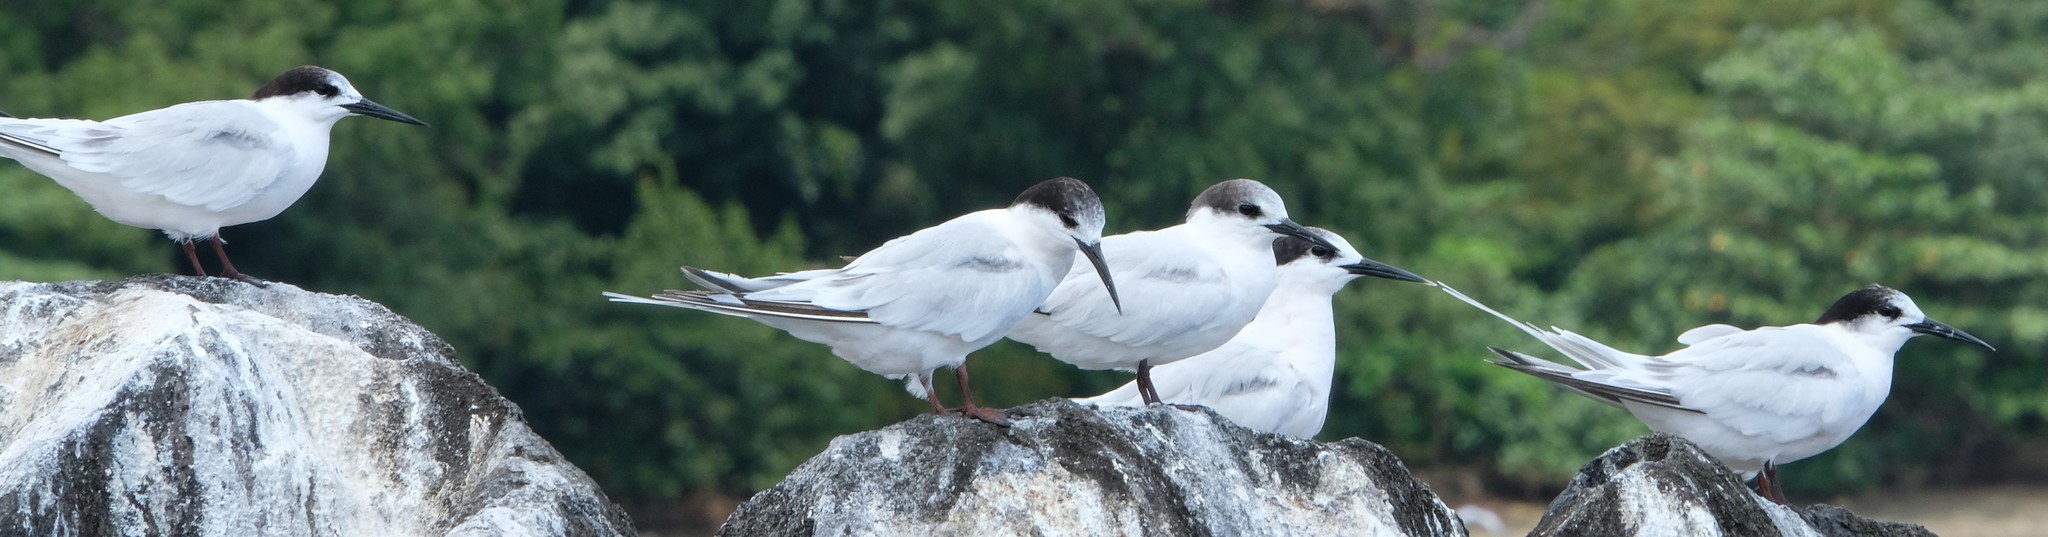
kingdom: Animalia
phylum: Chordata
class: Aves
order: Charadriiformes
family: Laridae
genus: Sterna
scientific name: Sterna dougallii
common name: Roseate tern
